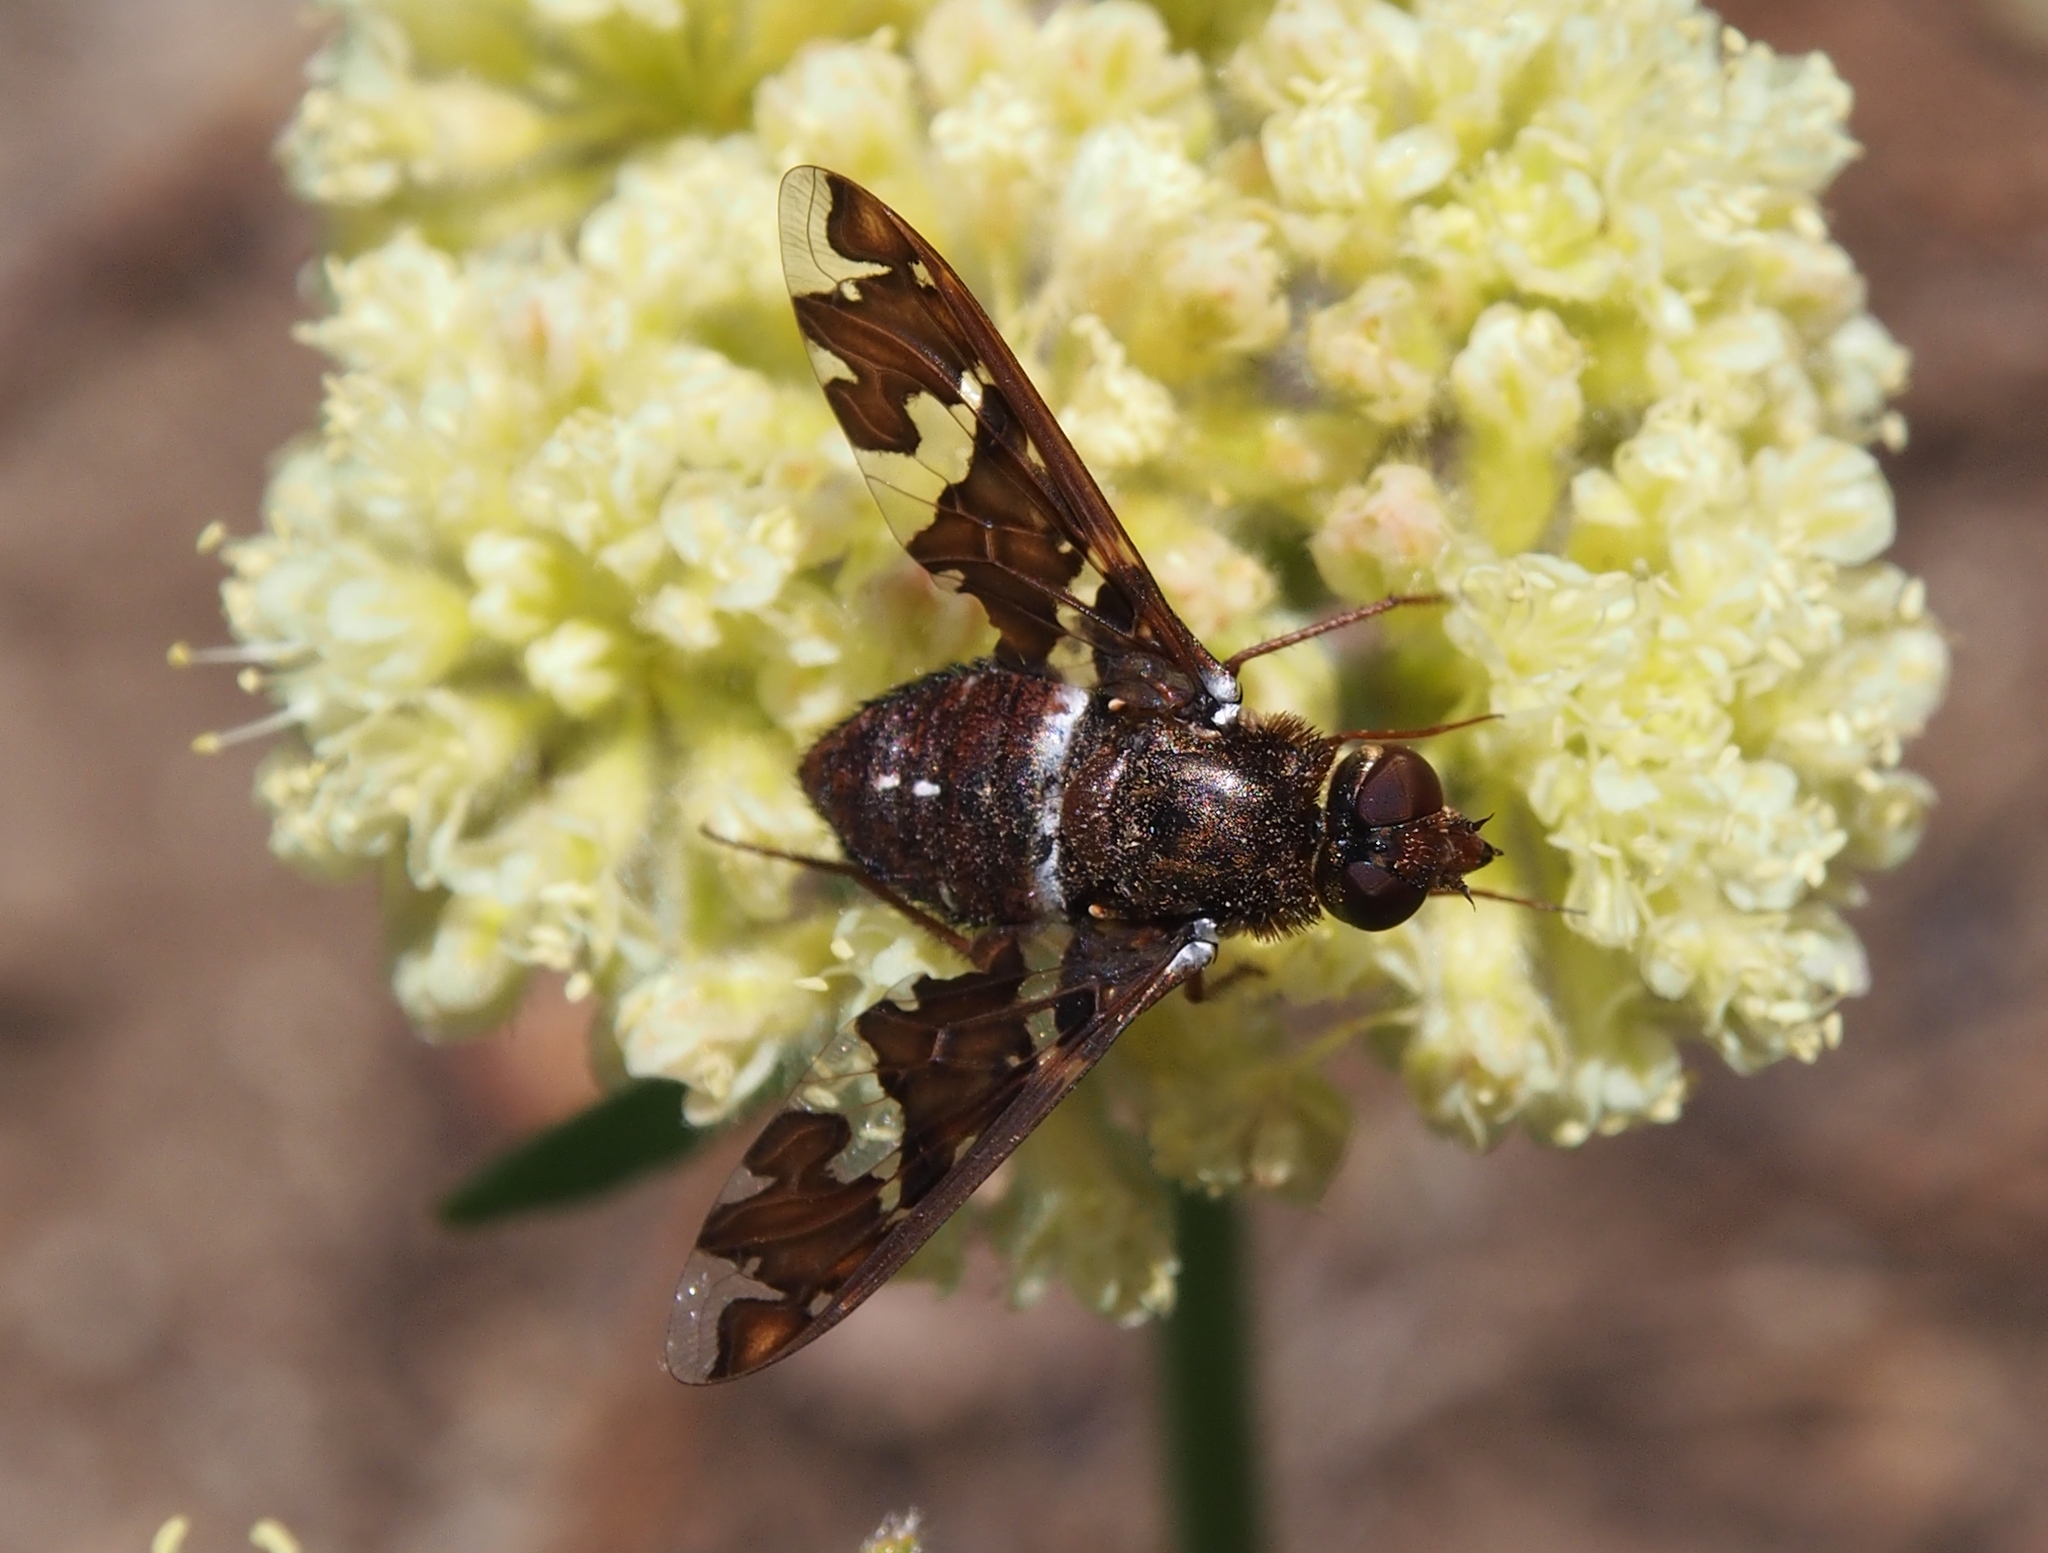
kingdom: Animalia
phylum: Arthropoda
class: Insecta
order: Diptera
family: Bombyliidae
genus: Exoprosopa
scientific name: Exoprosopa caliptera
